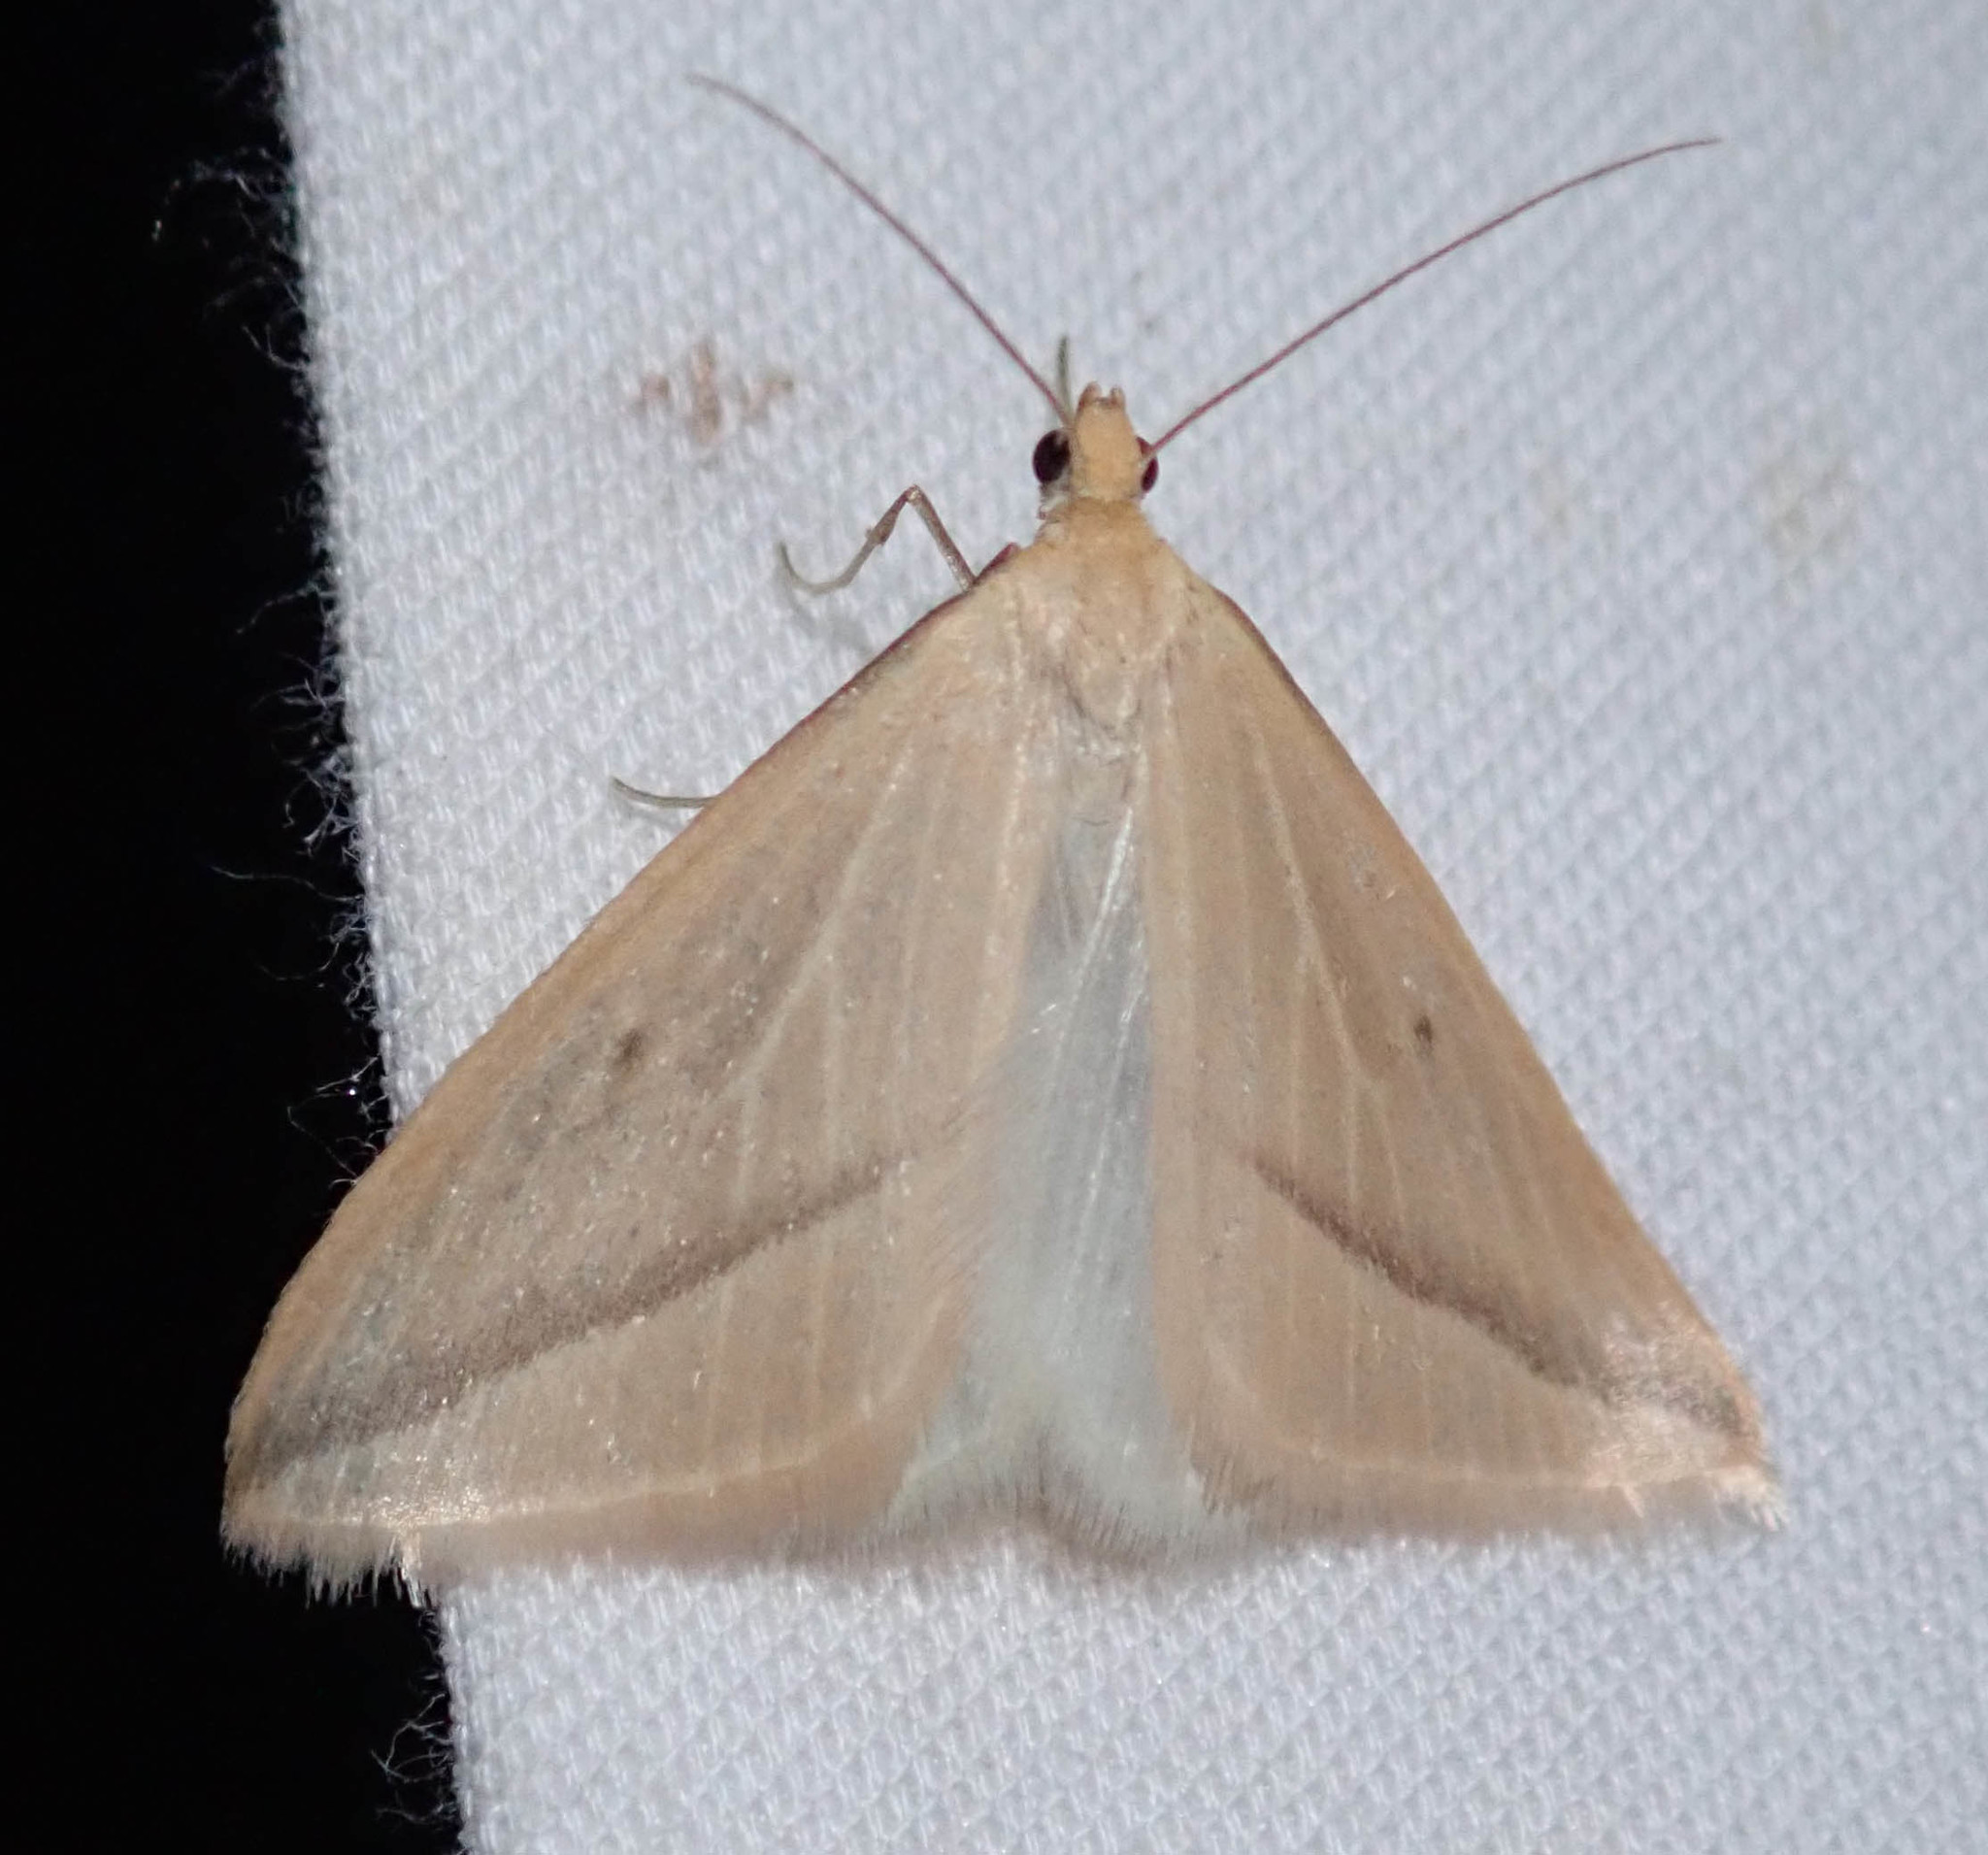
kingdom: Animalia
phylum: Arthropoda
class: Insecta
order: Lepidoptera
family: Geometridae
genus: Rhodometra
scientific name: Rhodometra sacraria
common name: Vestal
